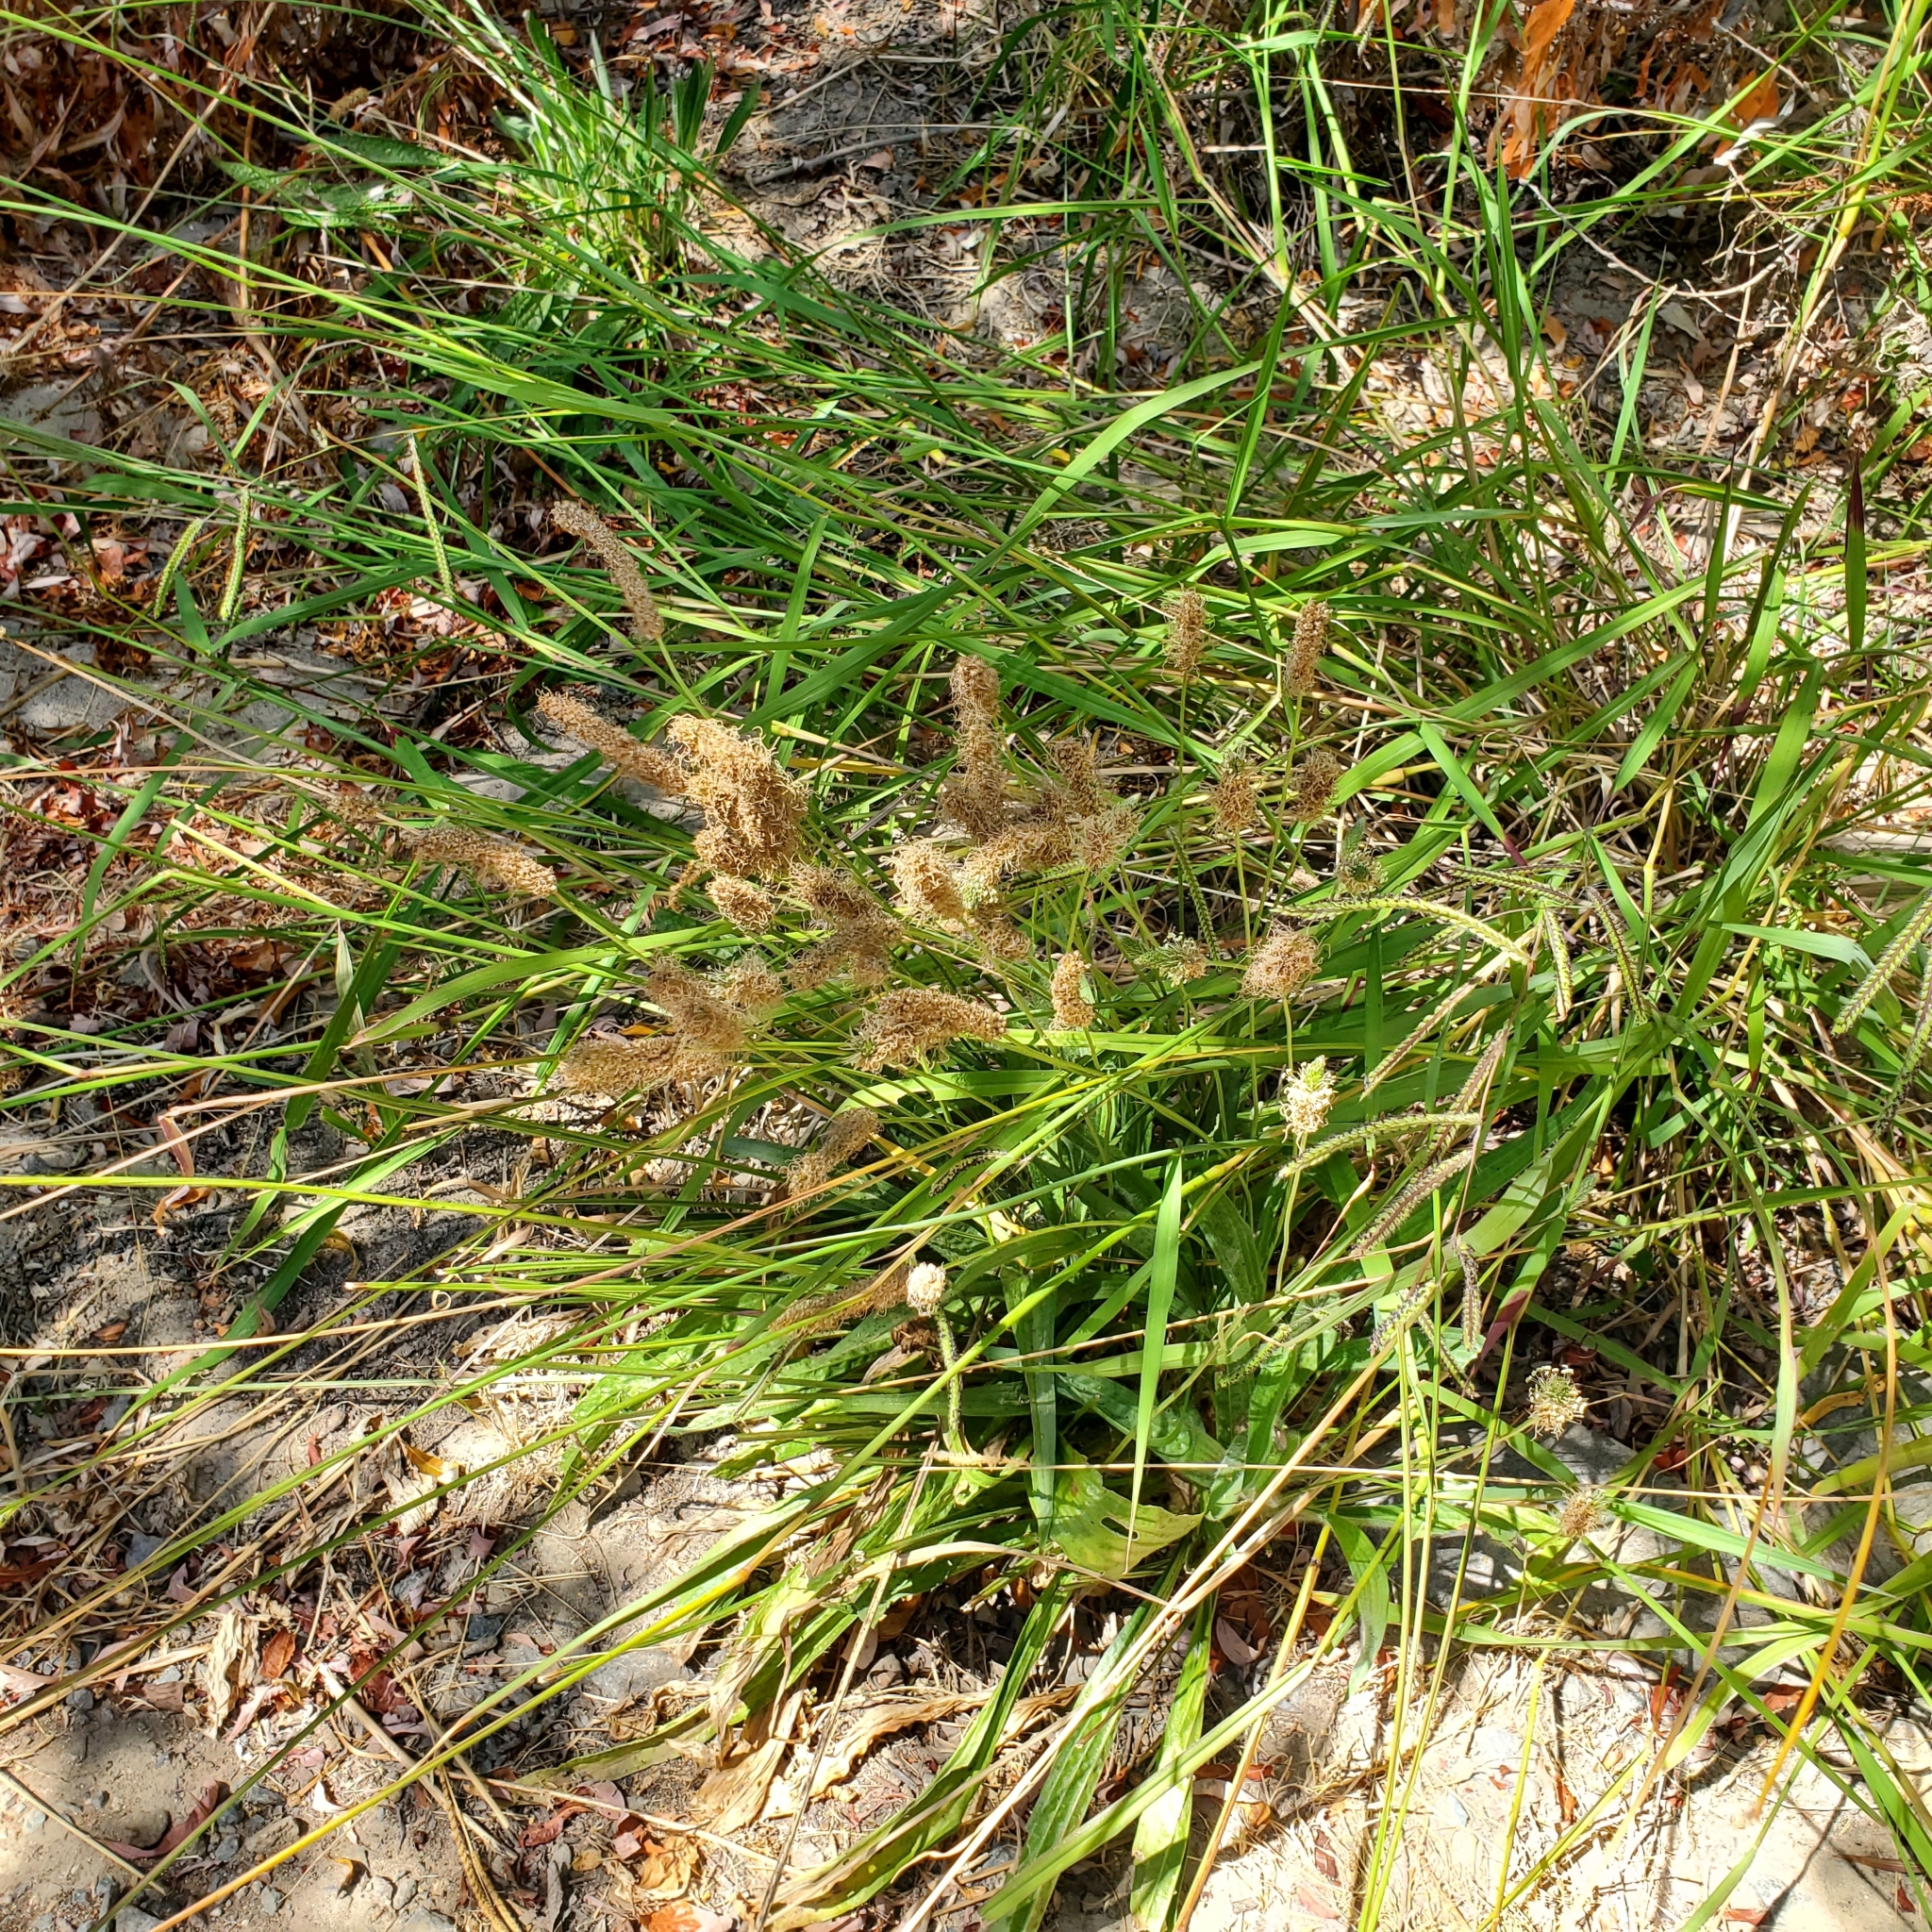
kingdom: Plantae
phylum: Tracheophyta
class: Magnoliopsida
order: Lamiales
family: Plantaginaceae
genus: Plantago
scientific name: Plantago lanceolata
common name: Ribwort plantain
